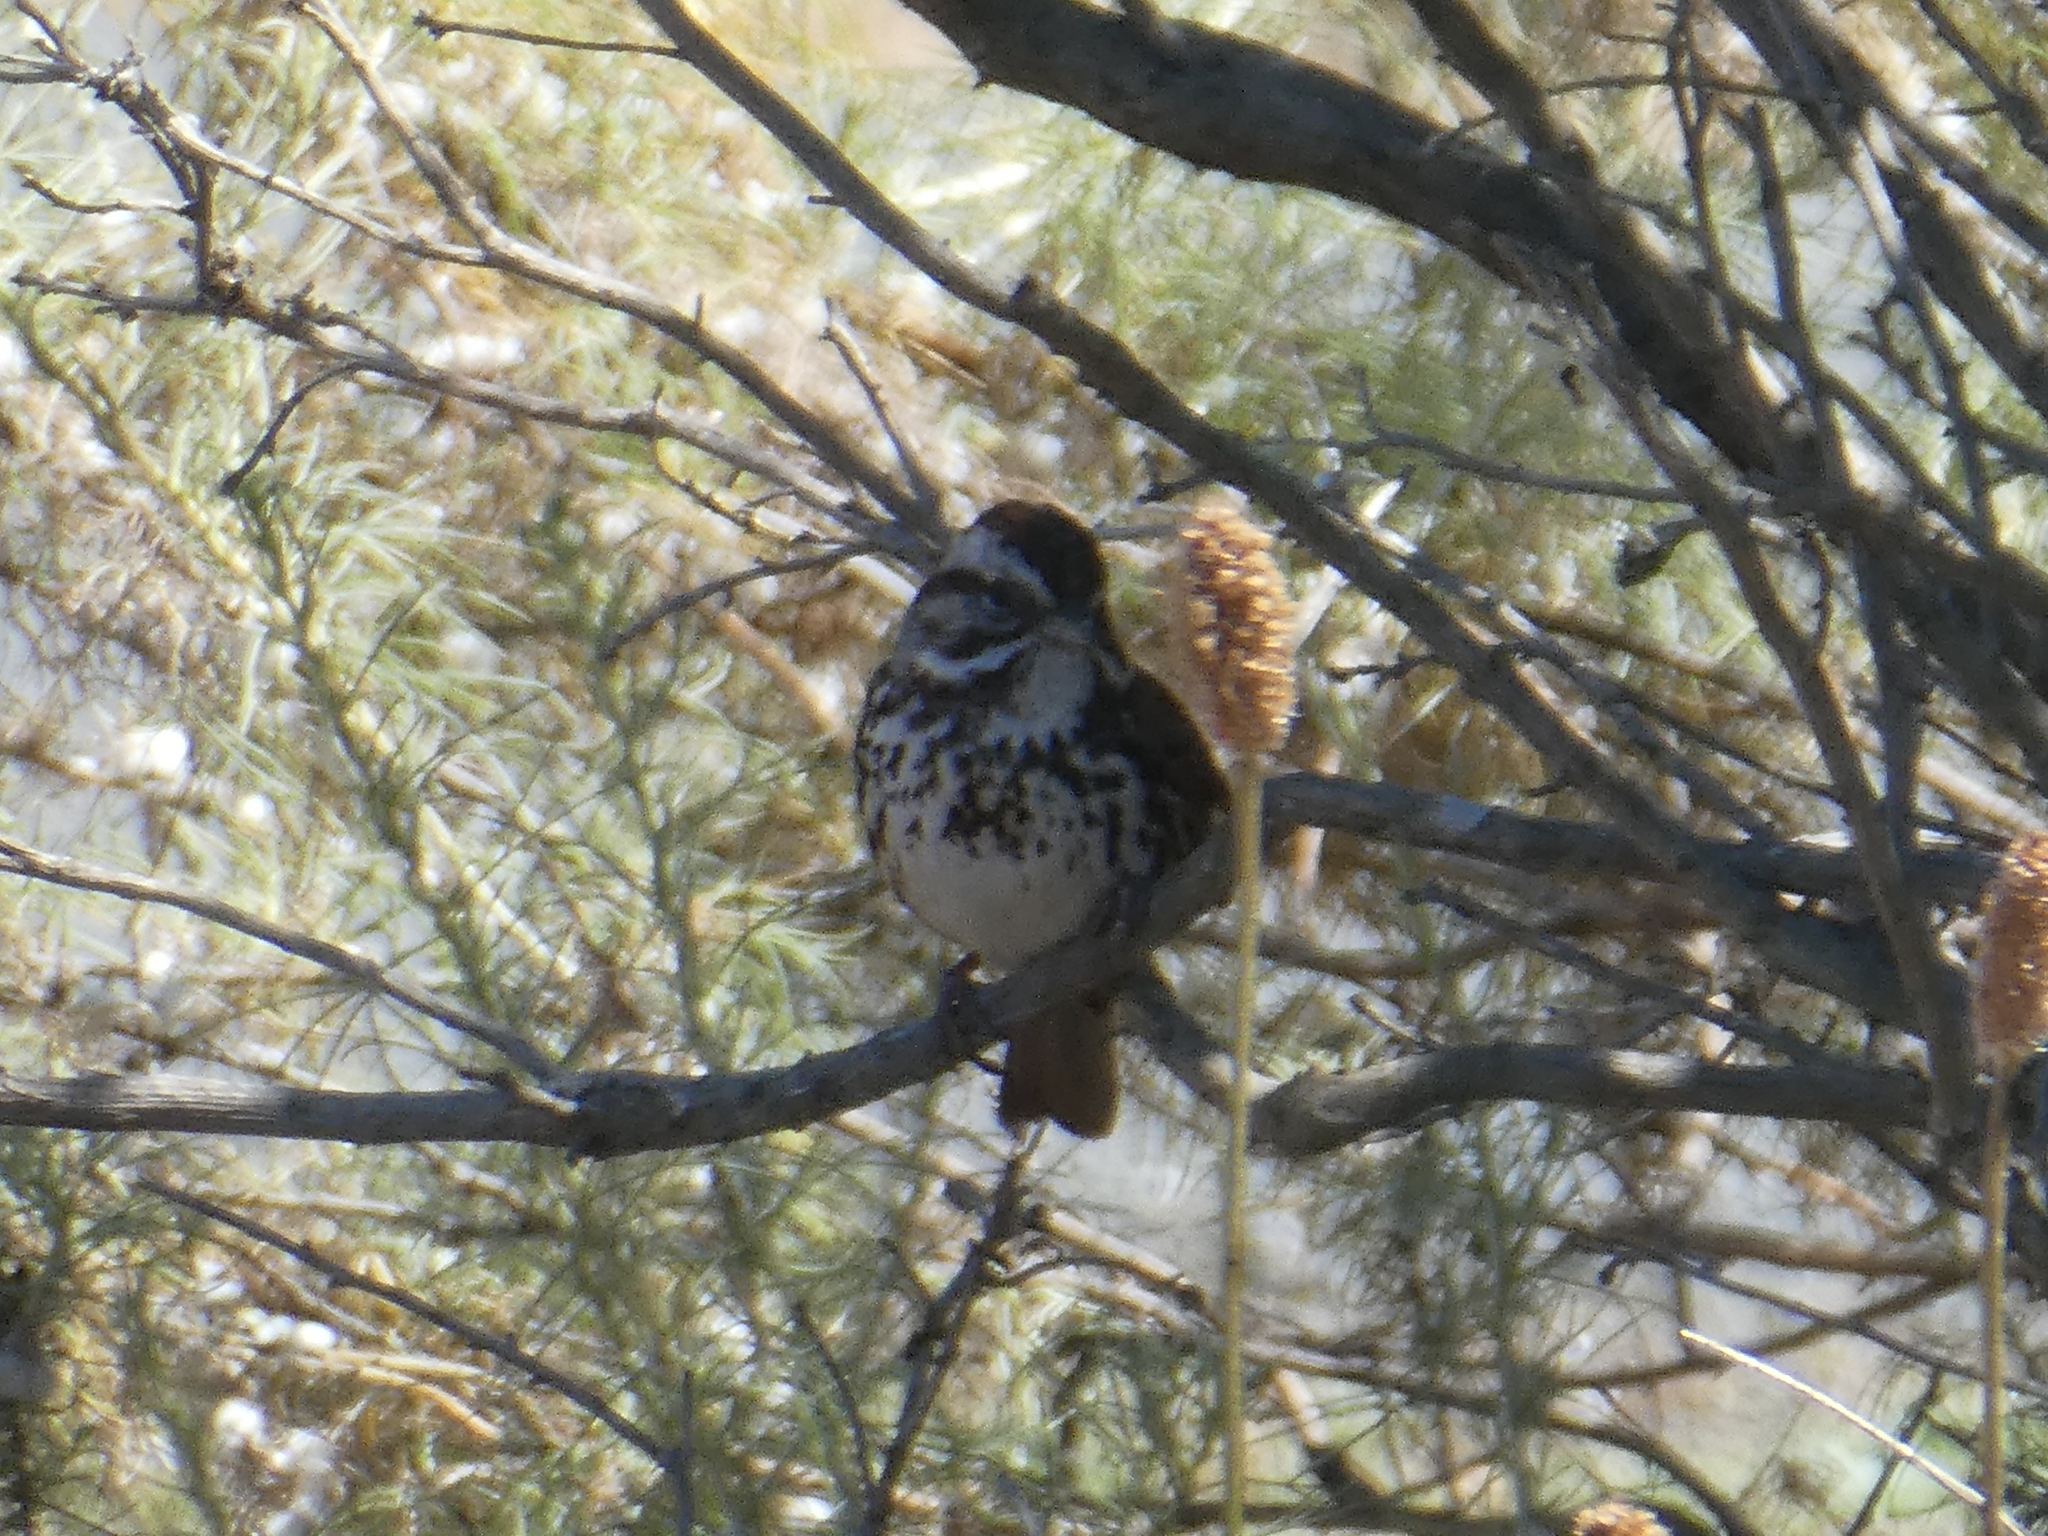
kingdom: Animalia
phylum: Chordata
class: Aves
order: Passeriformes
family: Passerellidae
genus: Melospiza
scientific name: Melospiza melodia
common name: Song sparrow
